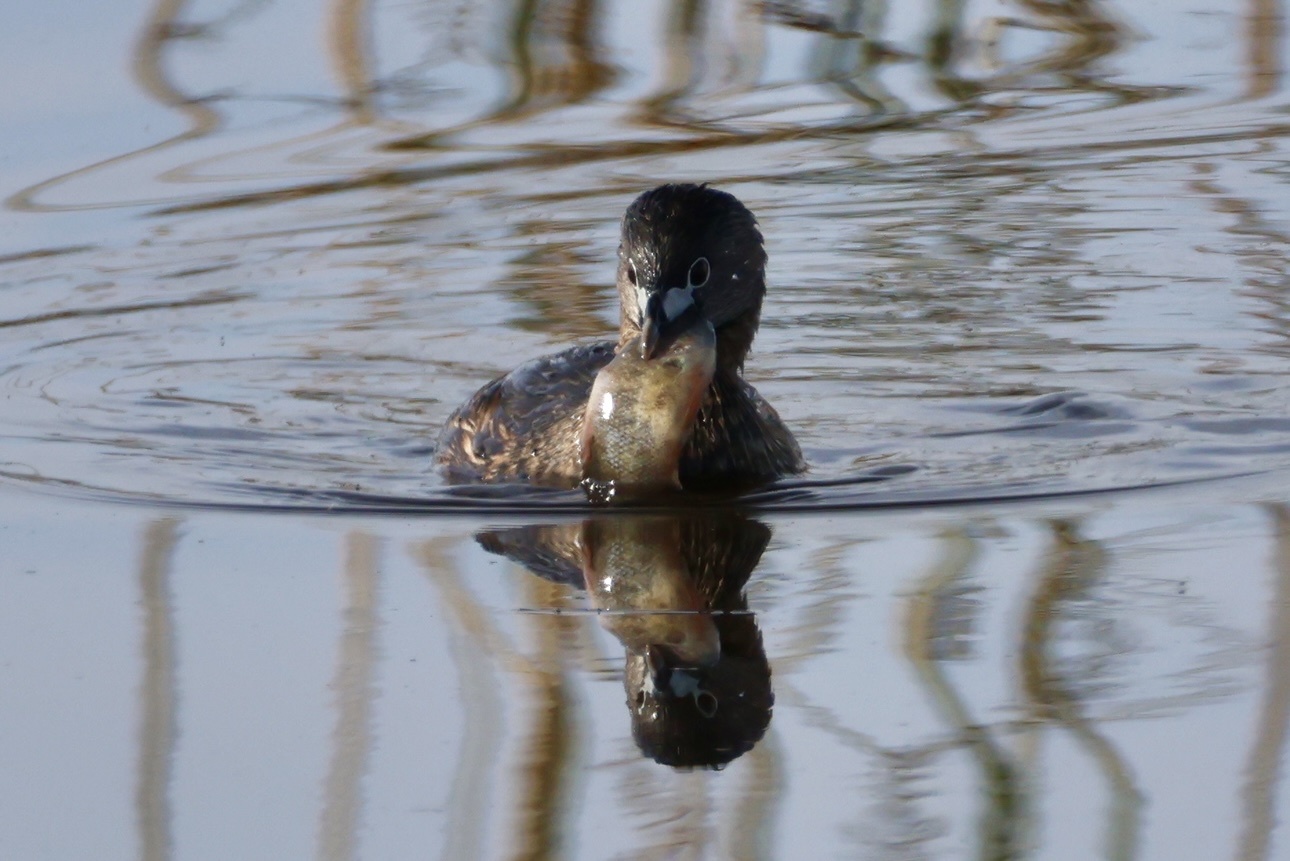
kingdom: Animalia
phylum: Chordata
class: Aves
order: Podicipediformes
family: Podicipedidae
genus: Podilymbus
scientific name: Podilymbus podiceps
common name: Pied-billed grebe
